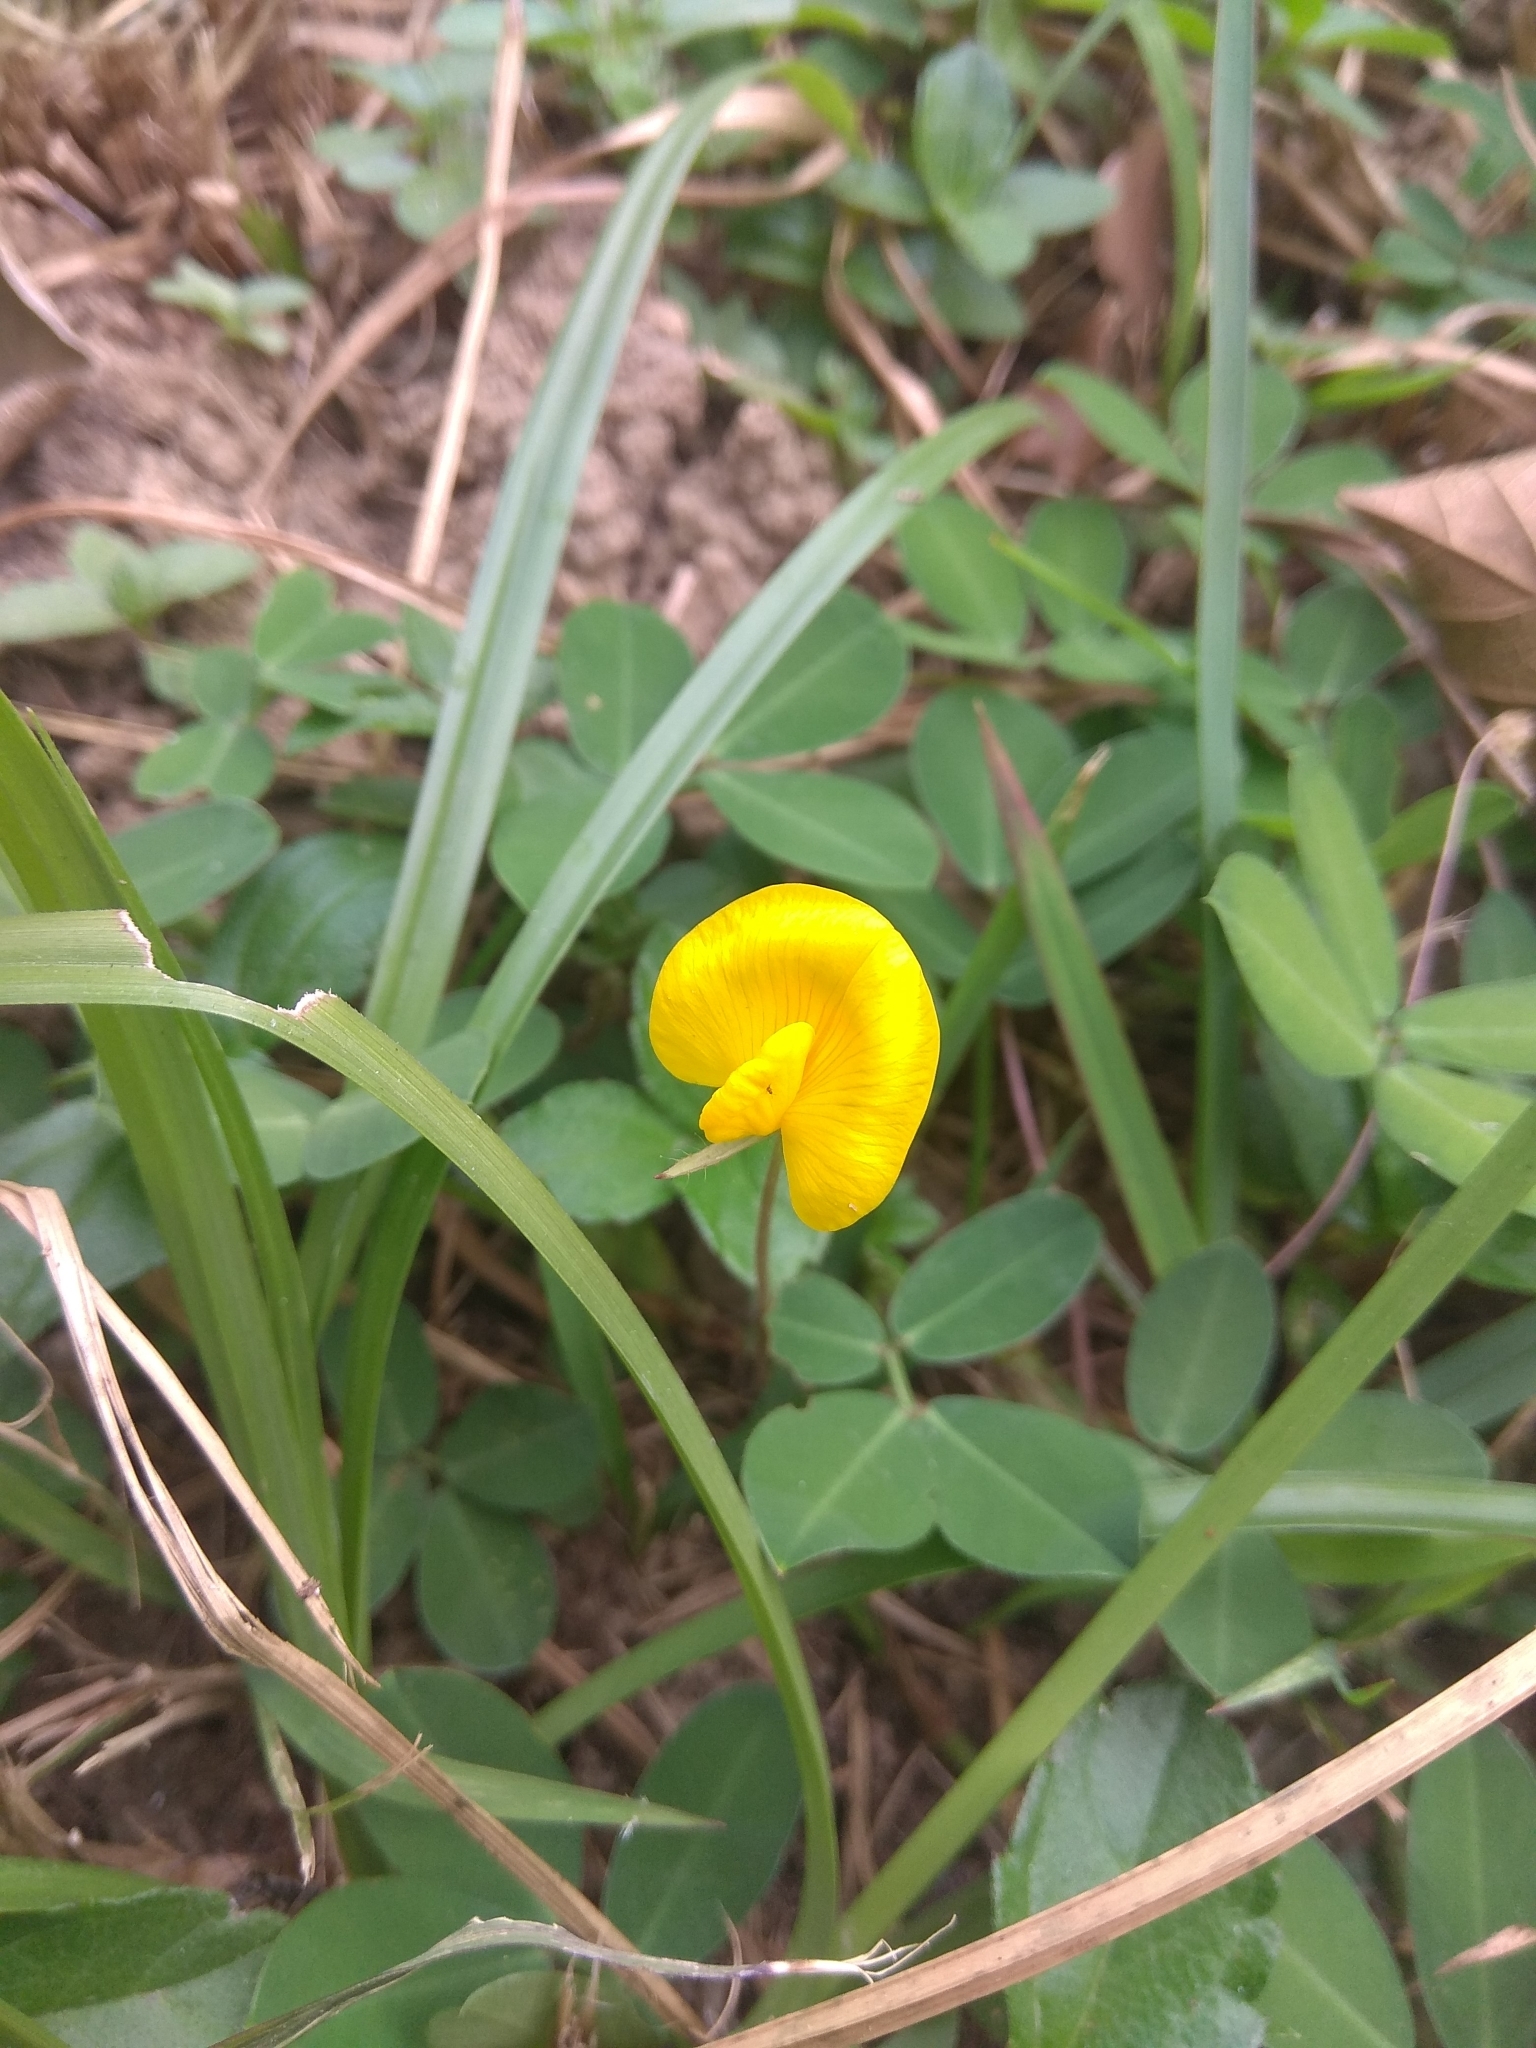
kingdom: Plantae
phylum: Tracheophyta
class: Magnoliopsida
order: Fabales
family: Fabaceae
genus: Arachis
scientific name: Arachis pintoi
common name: Pinto peanut
